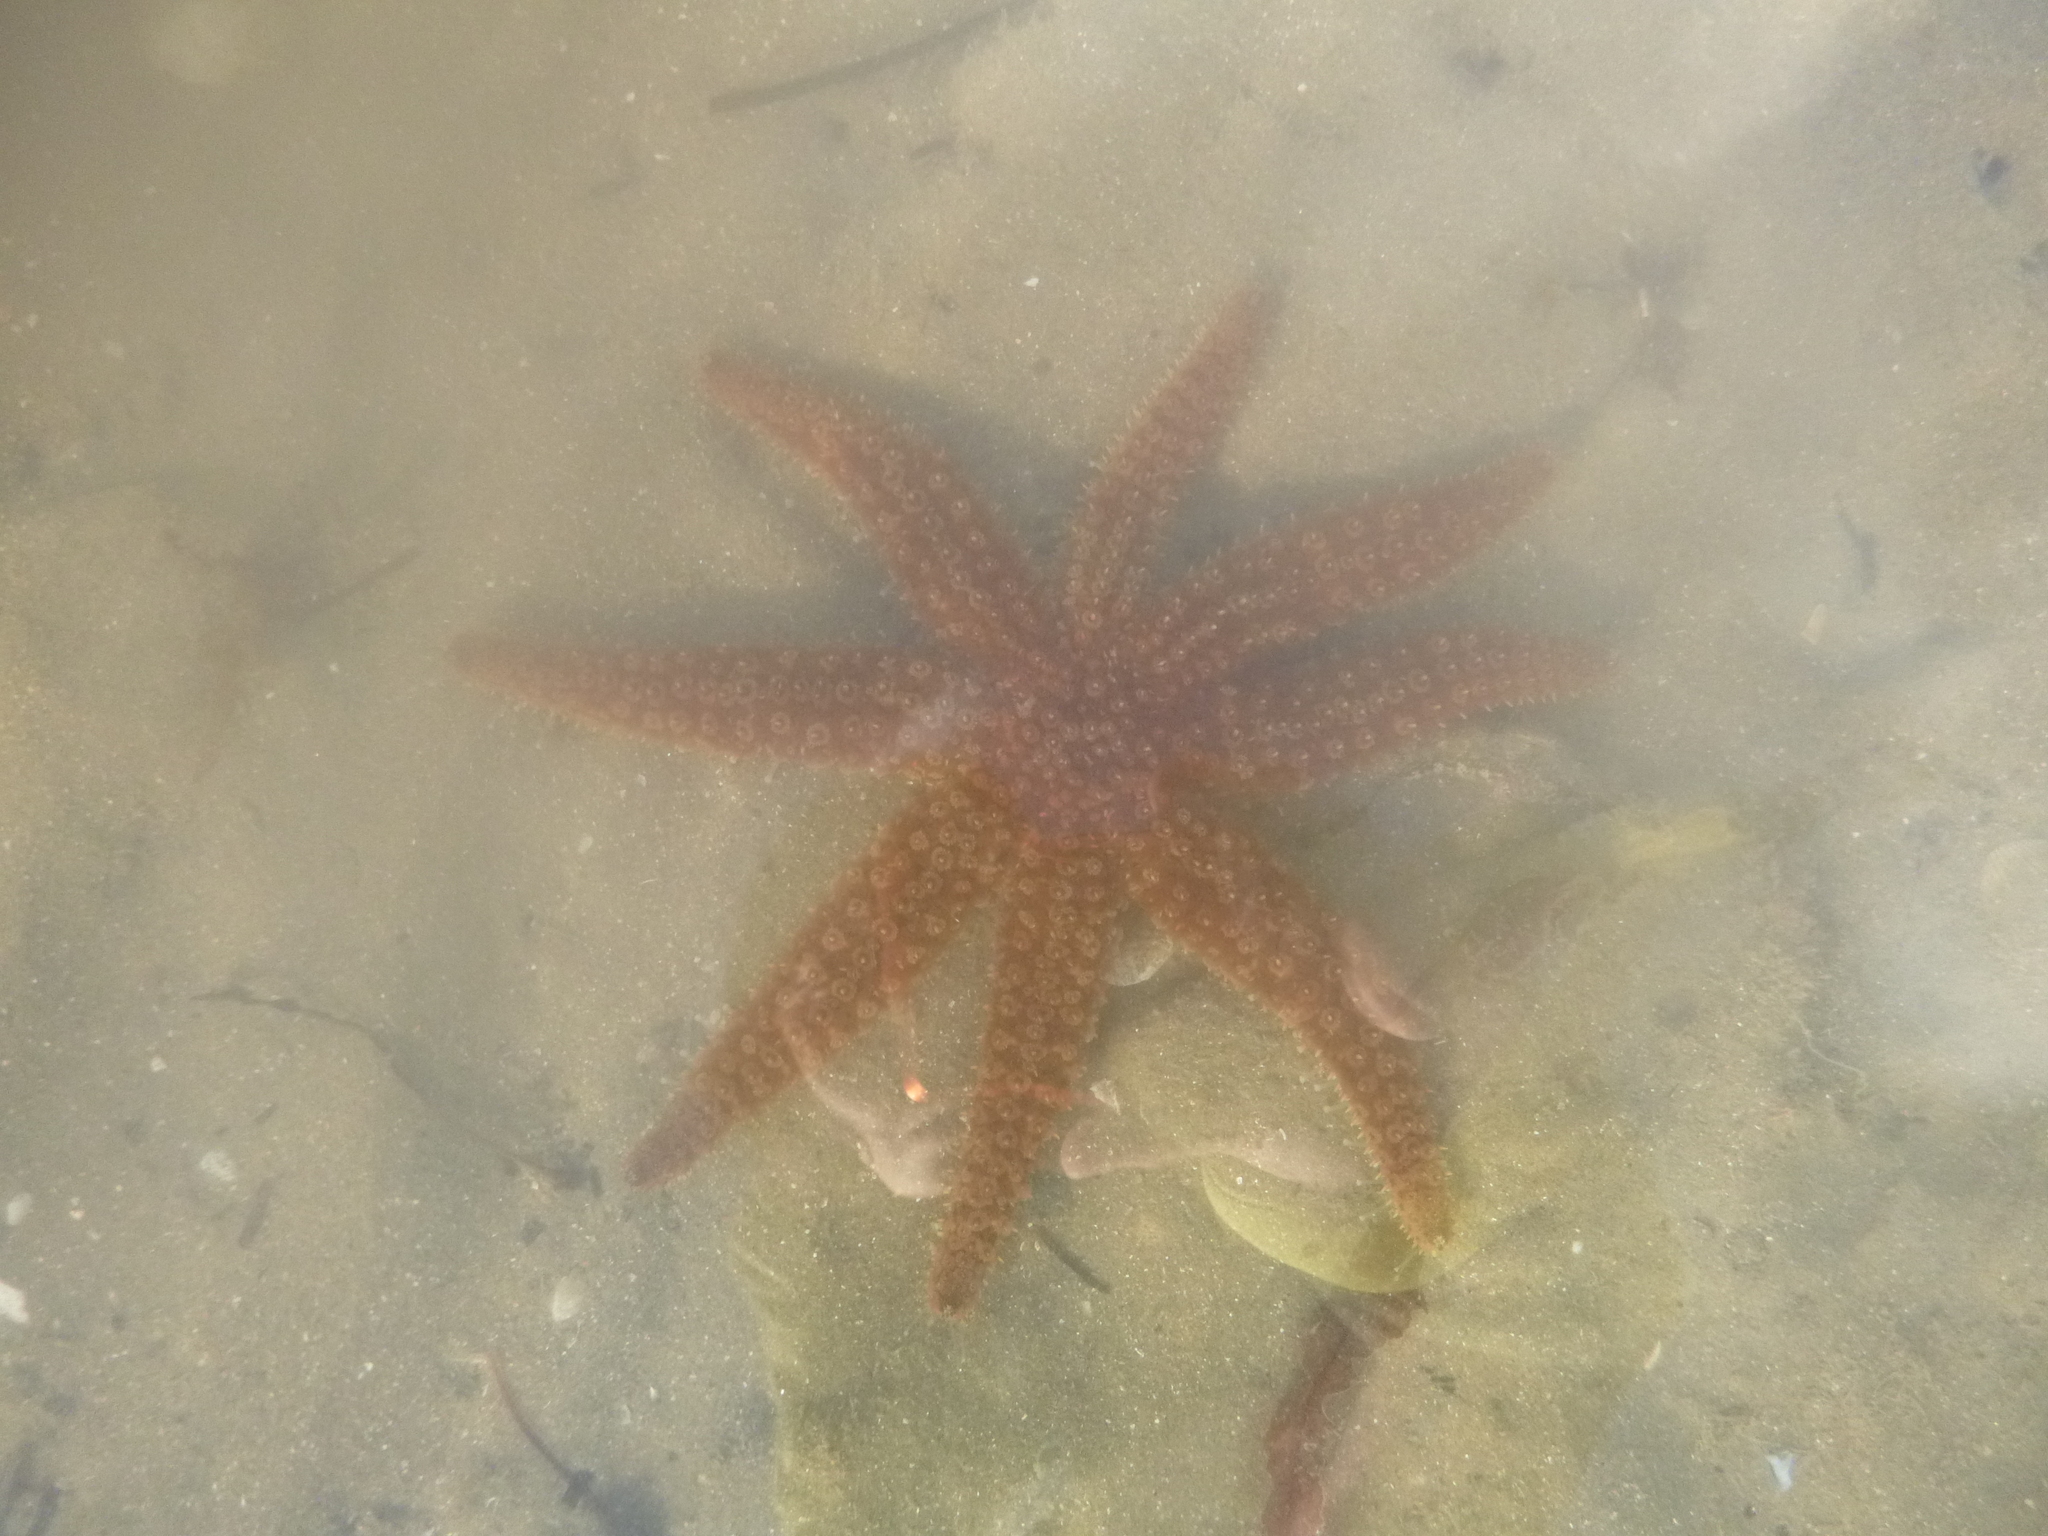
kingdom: Animalia
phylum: Echinodermata
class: Asteroidea
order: Forcipulatida
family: Asteriidae
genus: Coscinasterias
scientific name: Coscinasterias muricata
